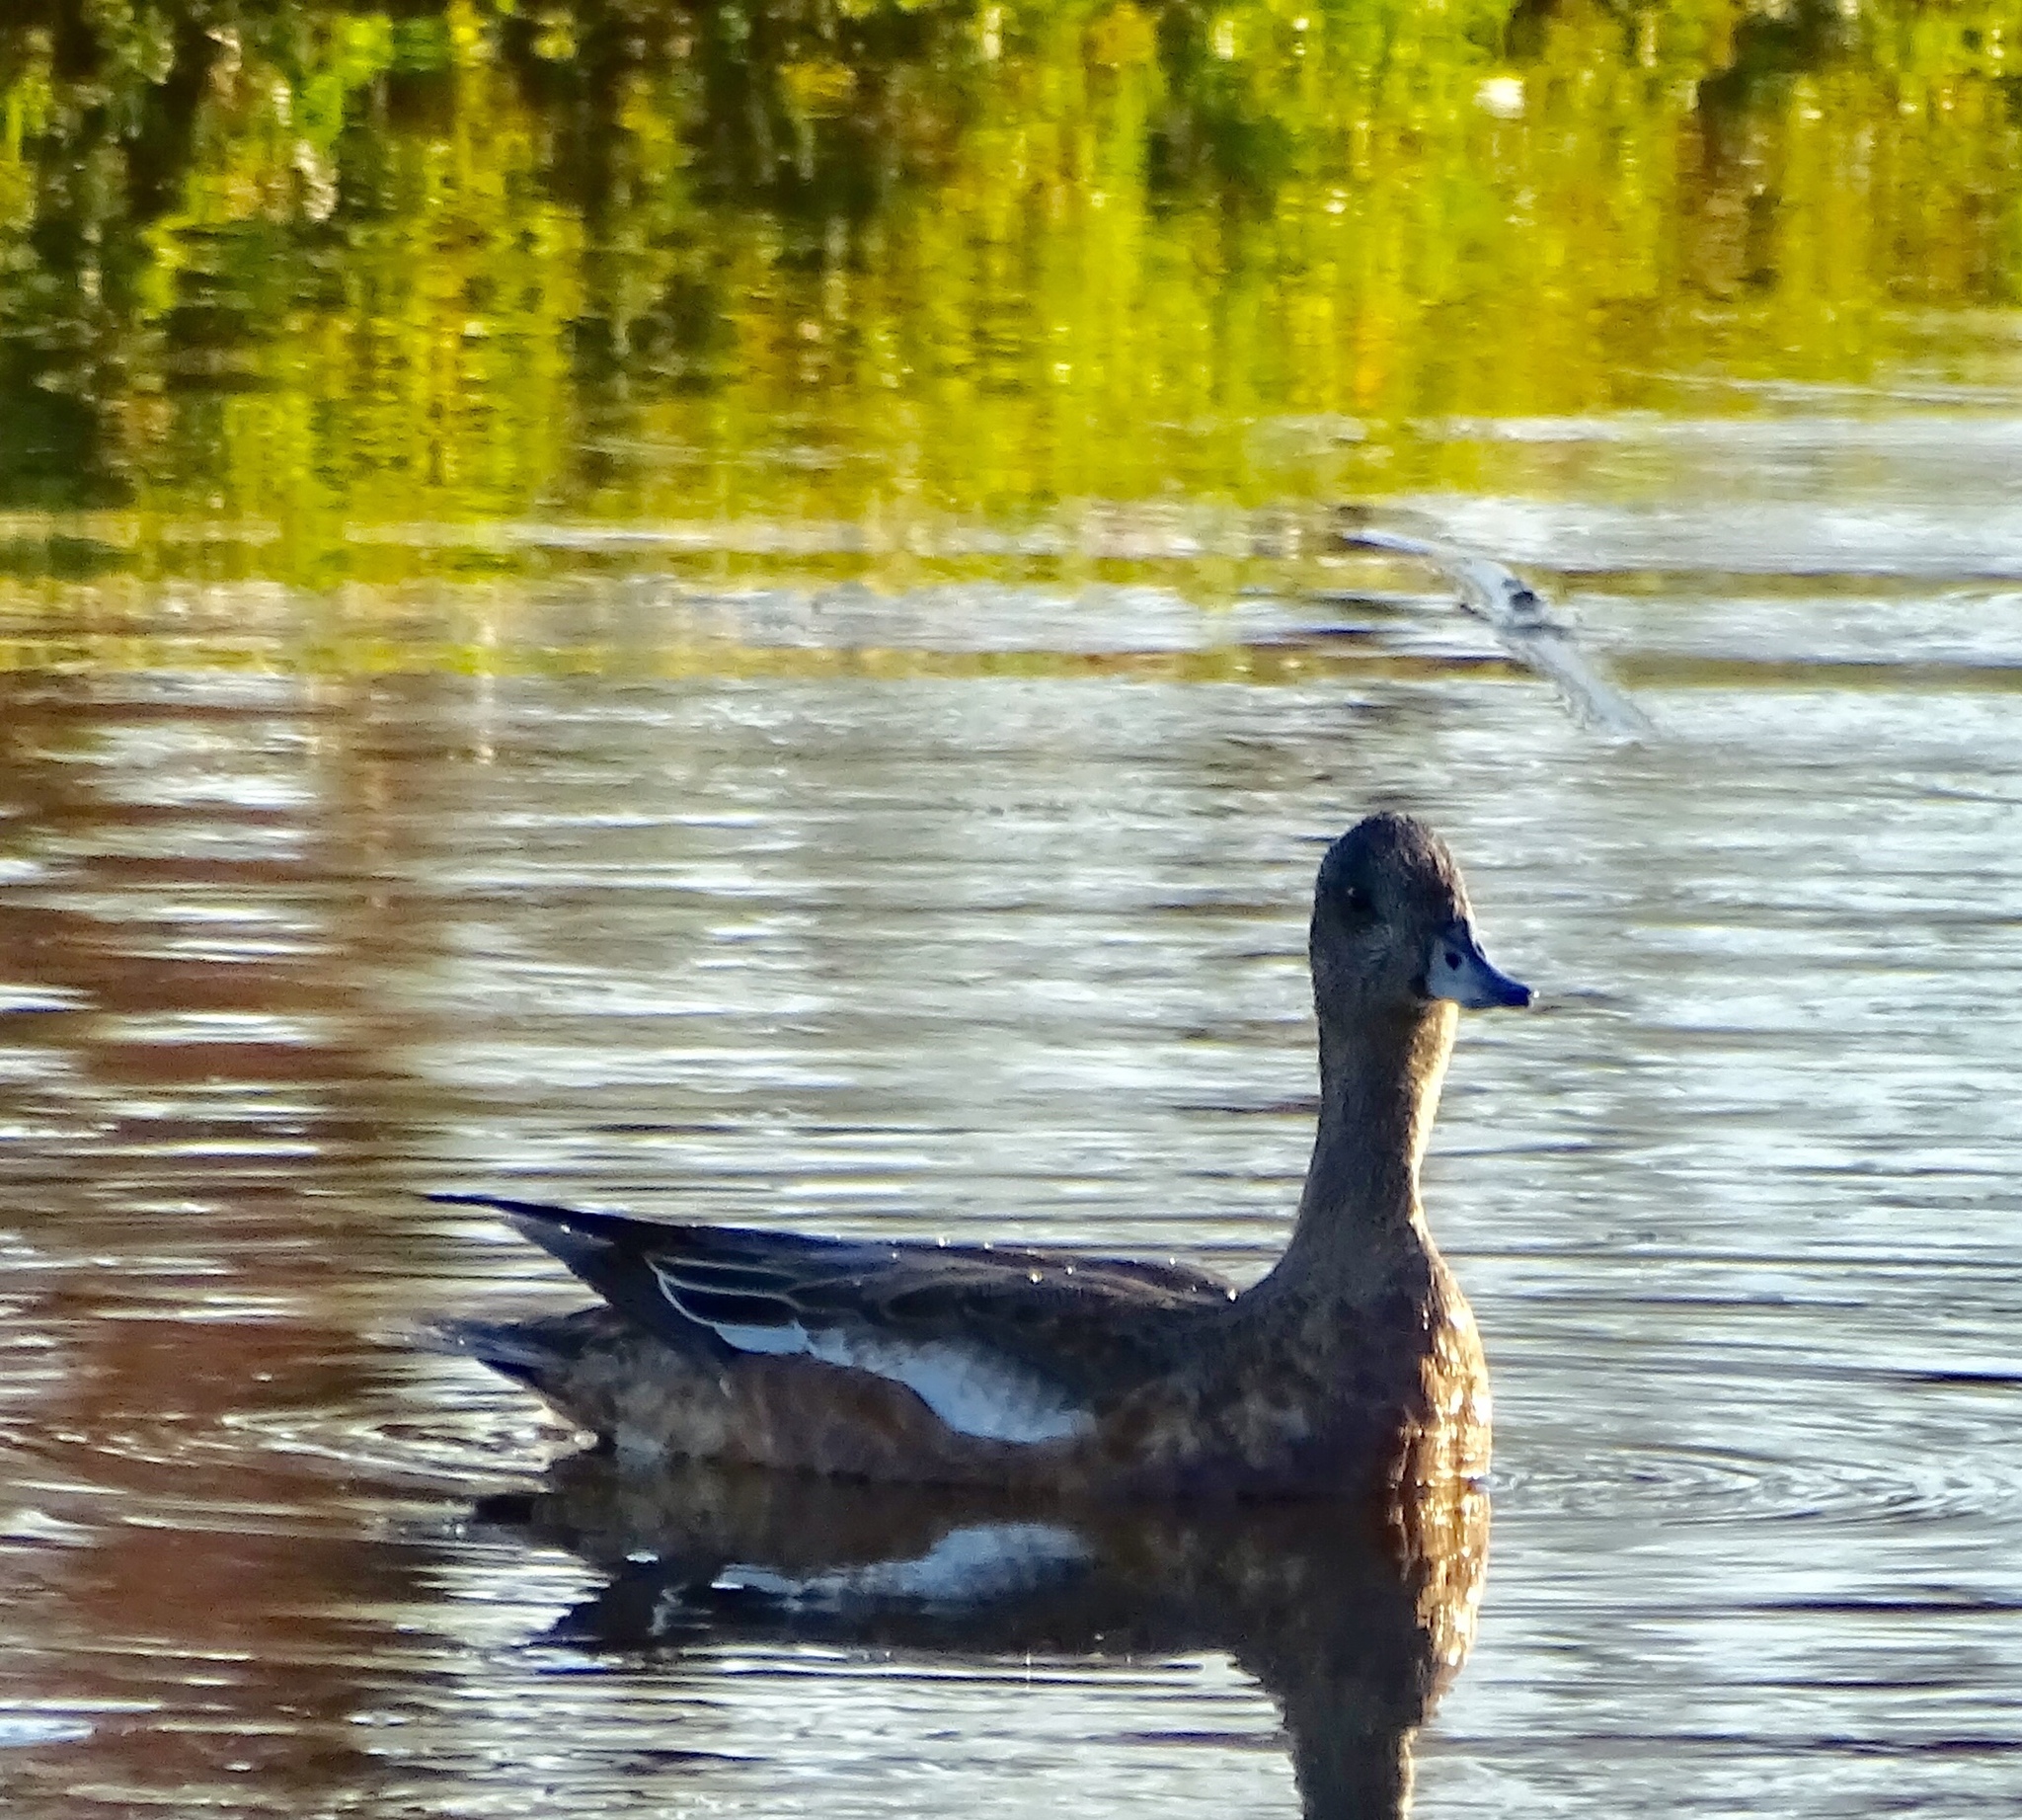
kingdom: Animalia
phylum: Chordata
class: Aves
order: Anseriformes
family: Anatidae
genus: Mareca
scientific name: Mareca americana
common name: American wigeon
